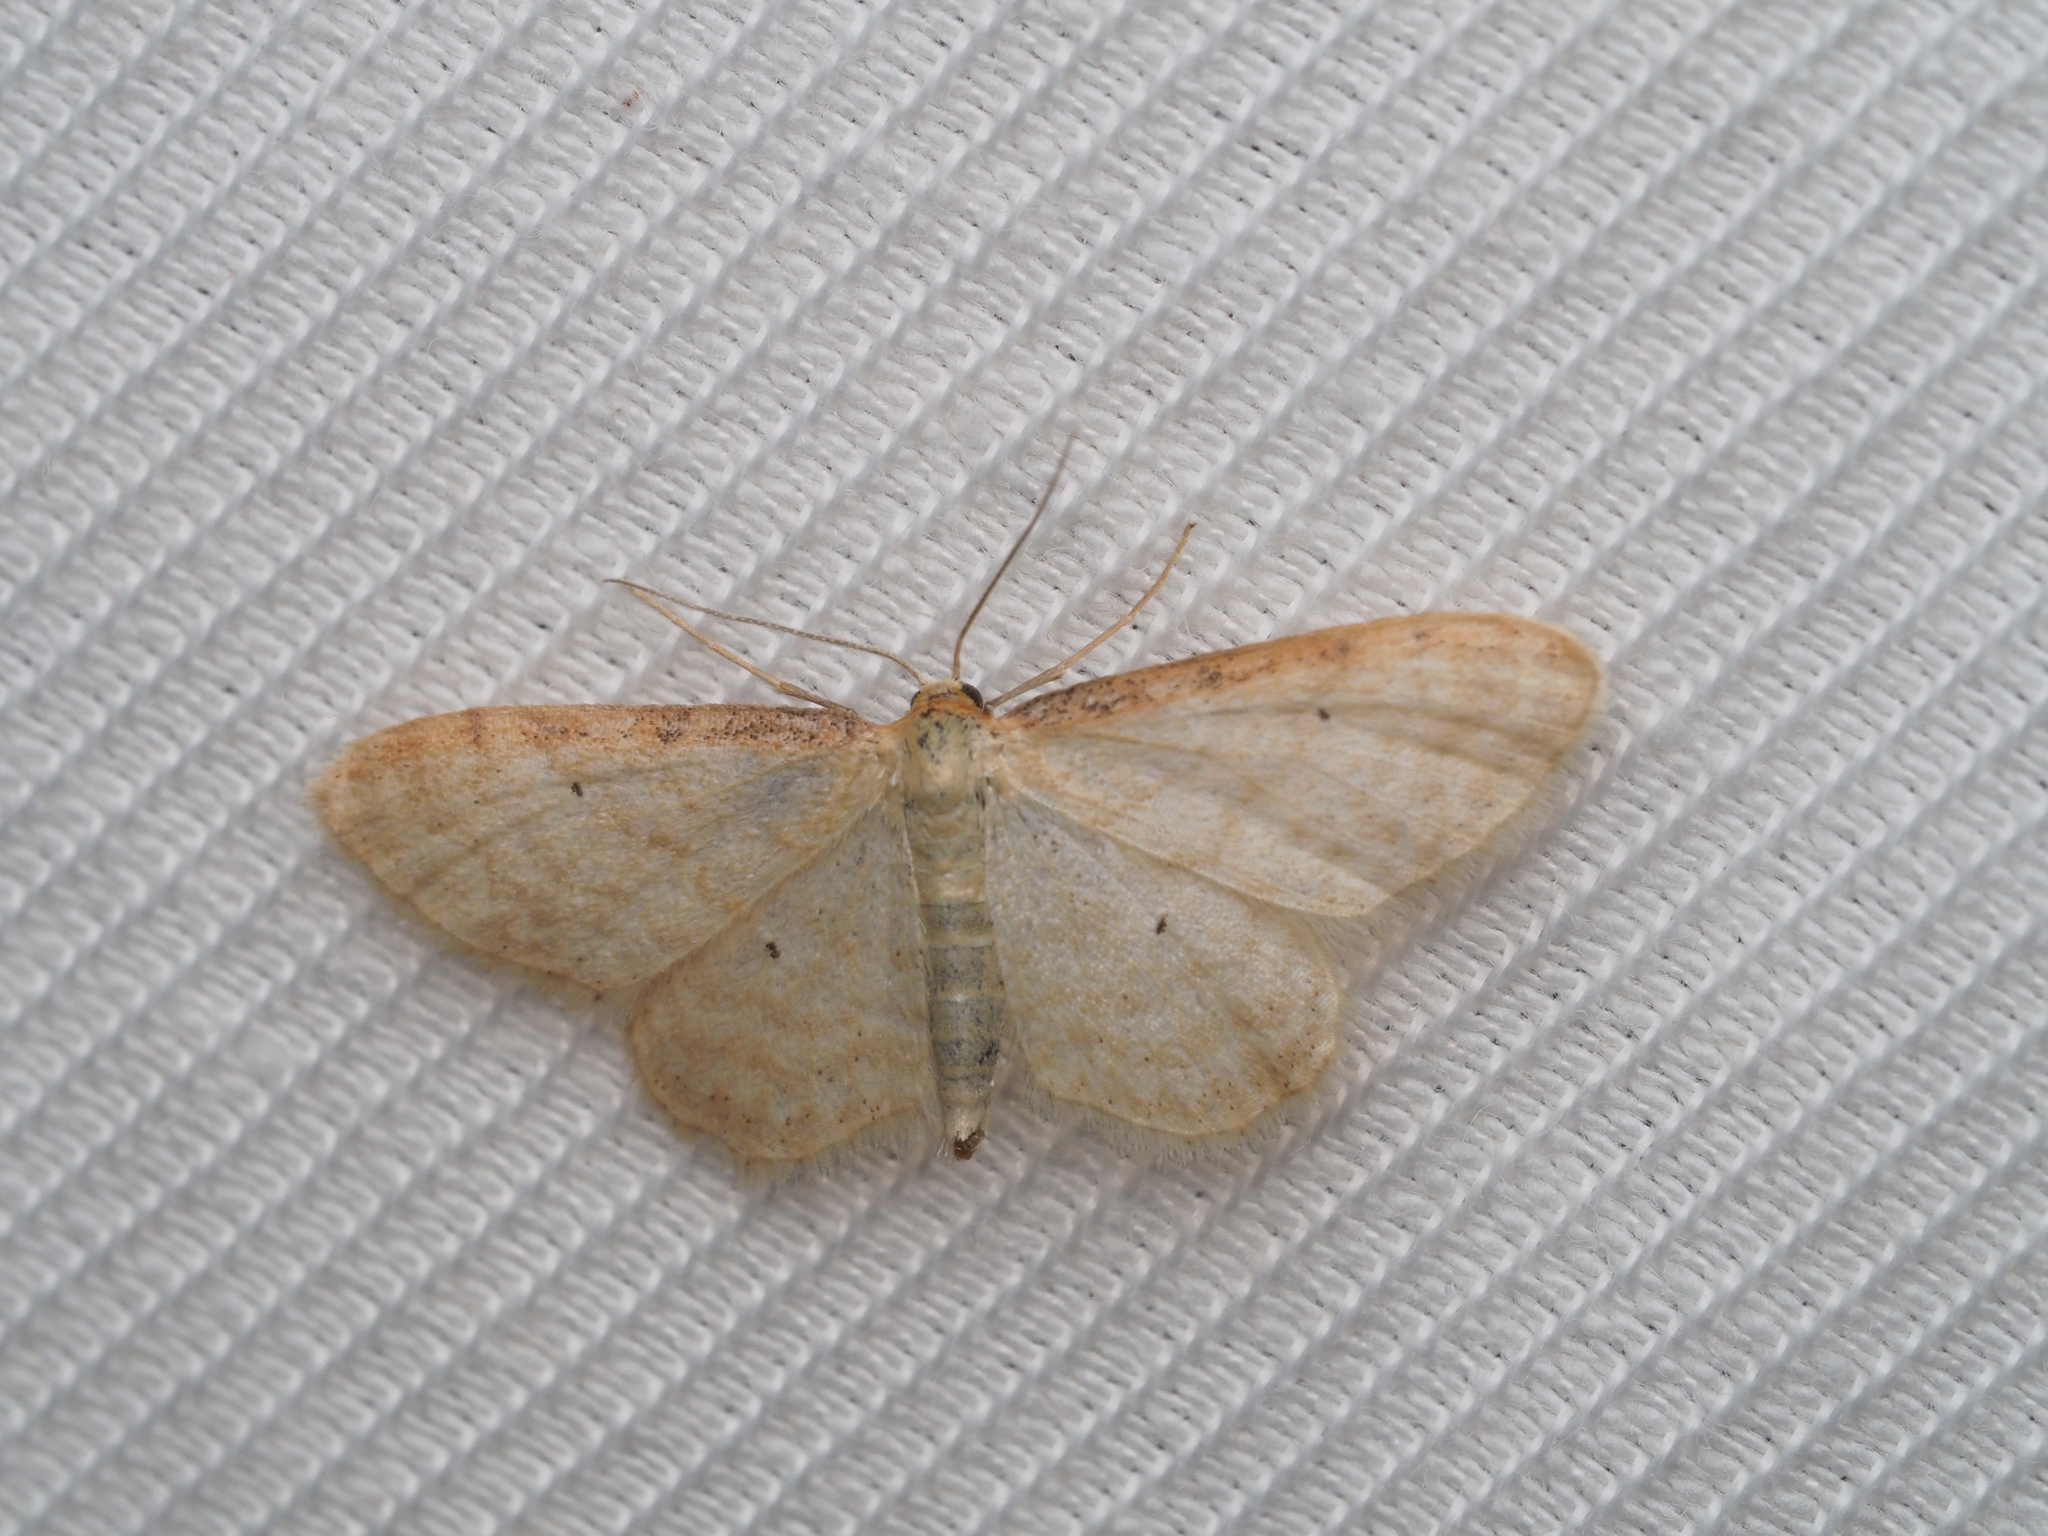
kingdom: Animalia
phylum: Arthropoda
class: Insecta
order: Lepidoptera
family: Geometridae
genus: Idaea
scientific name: Idaea humiliata
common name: Isle of wight wave
